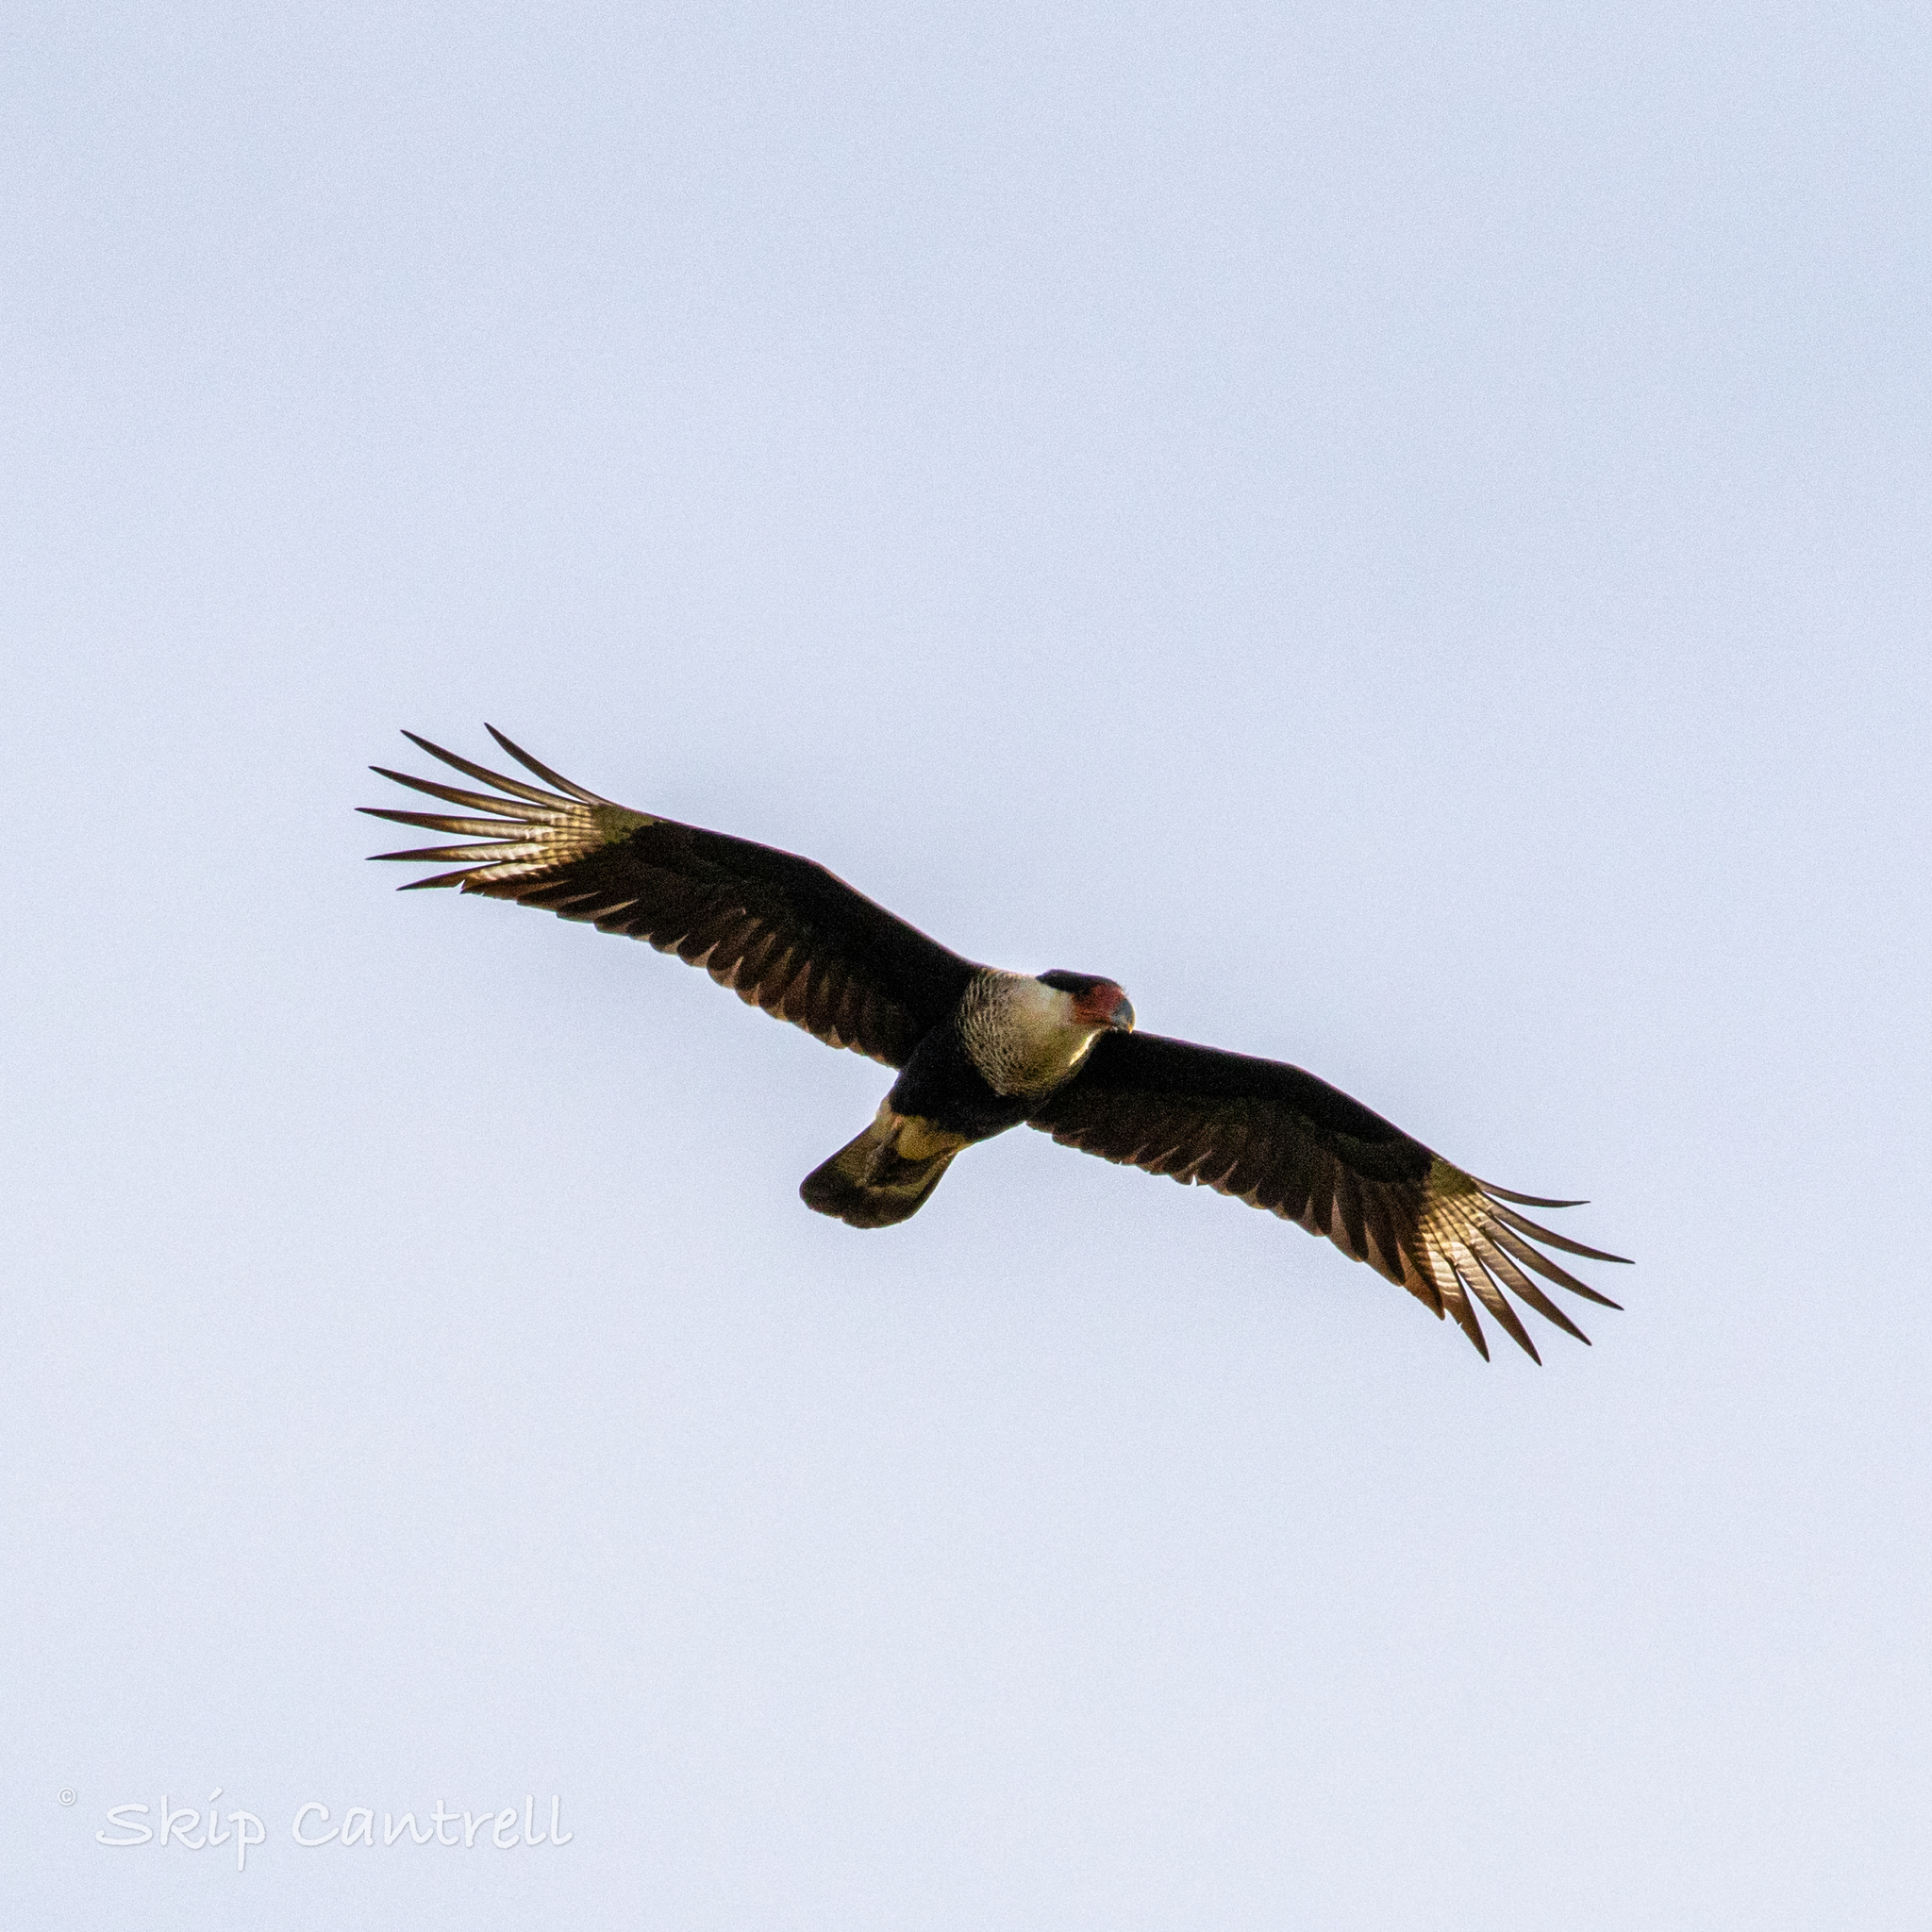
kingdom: Animalia
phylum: Chordata
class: Aves
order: Falconiformes
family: Falconidae
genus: Caracara
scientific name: Caracara plancus
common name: Southern caracara
